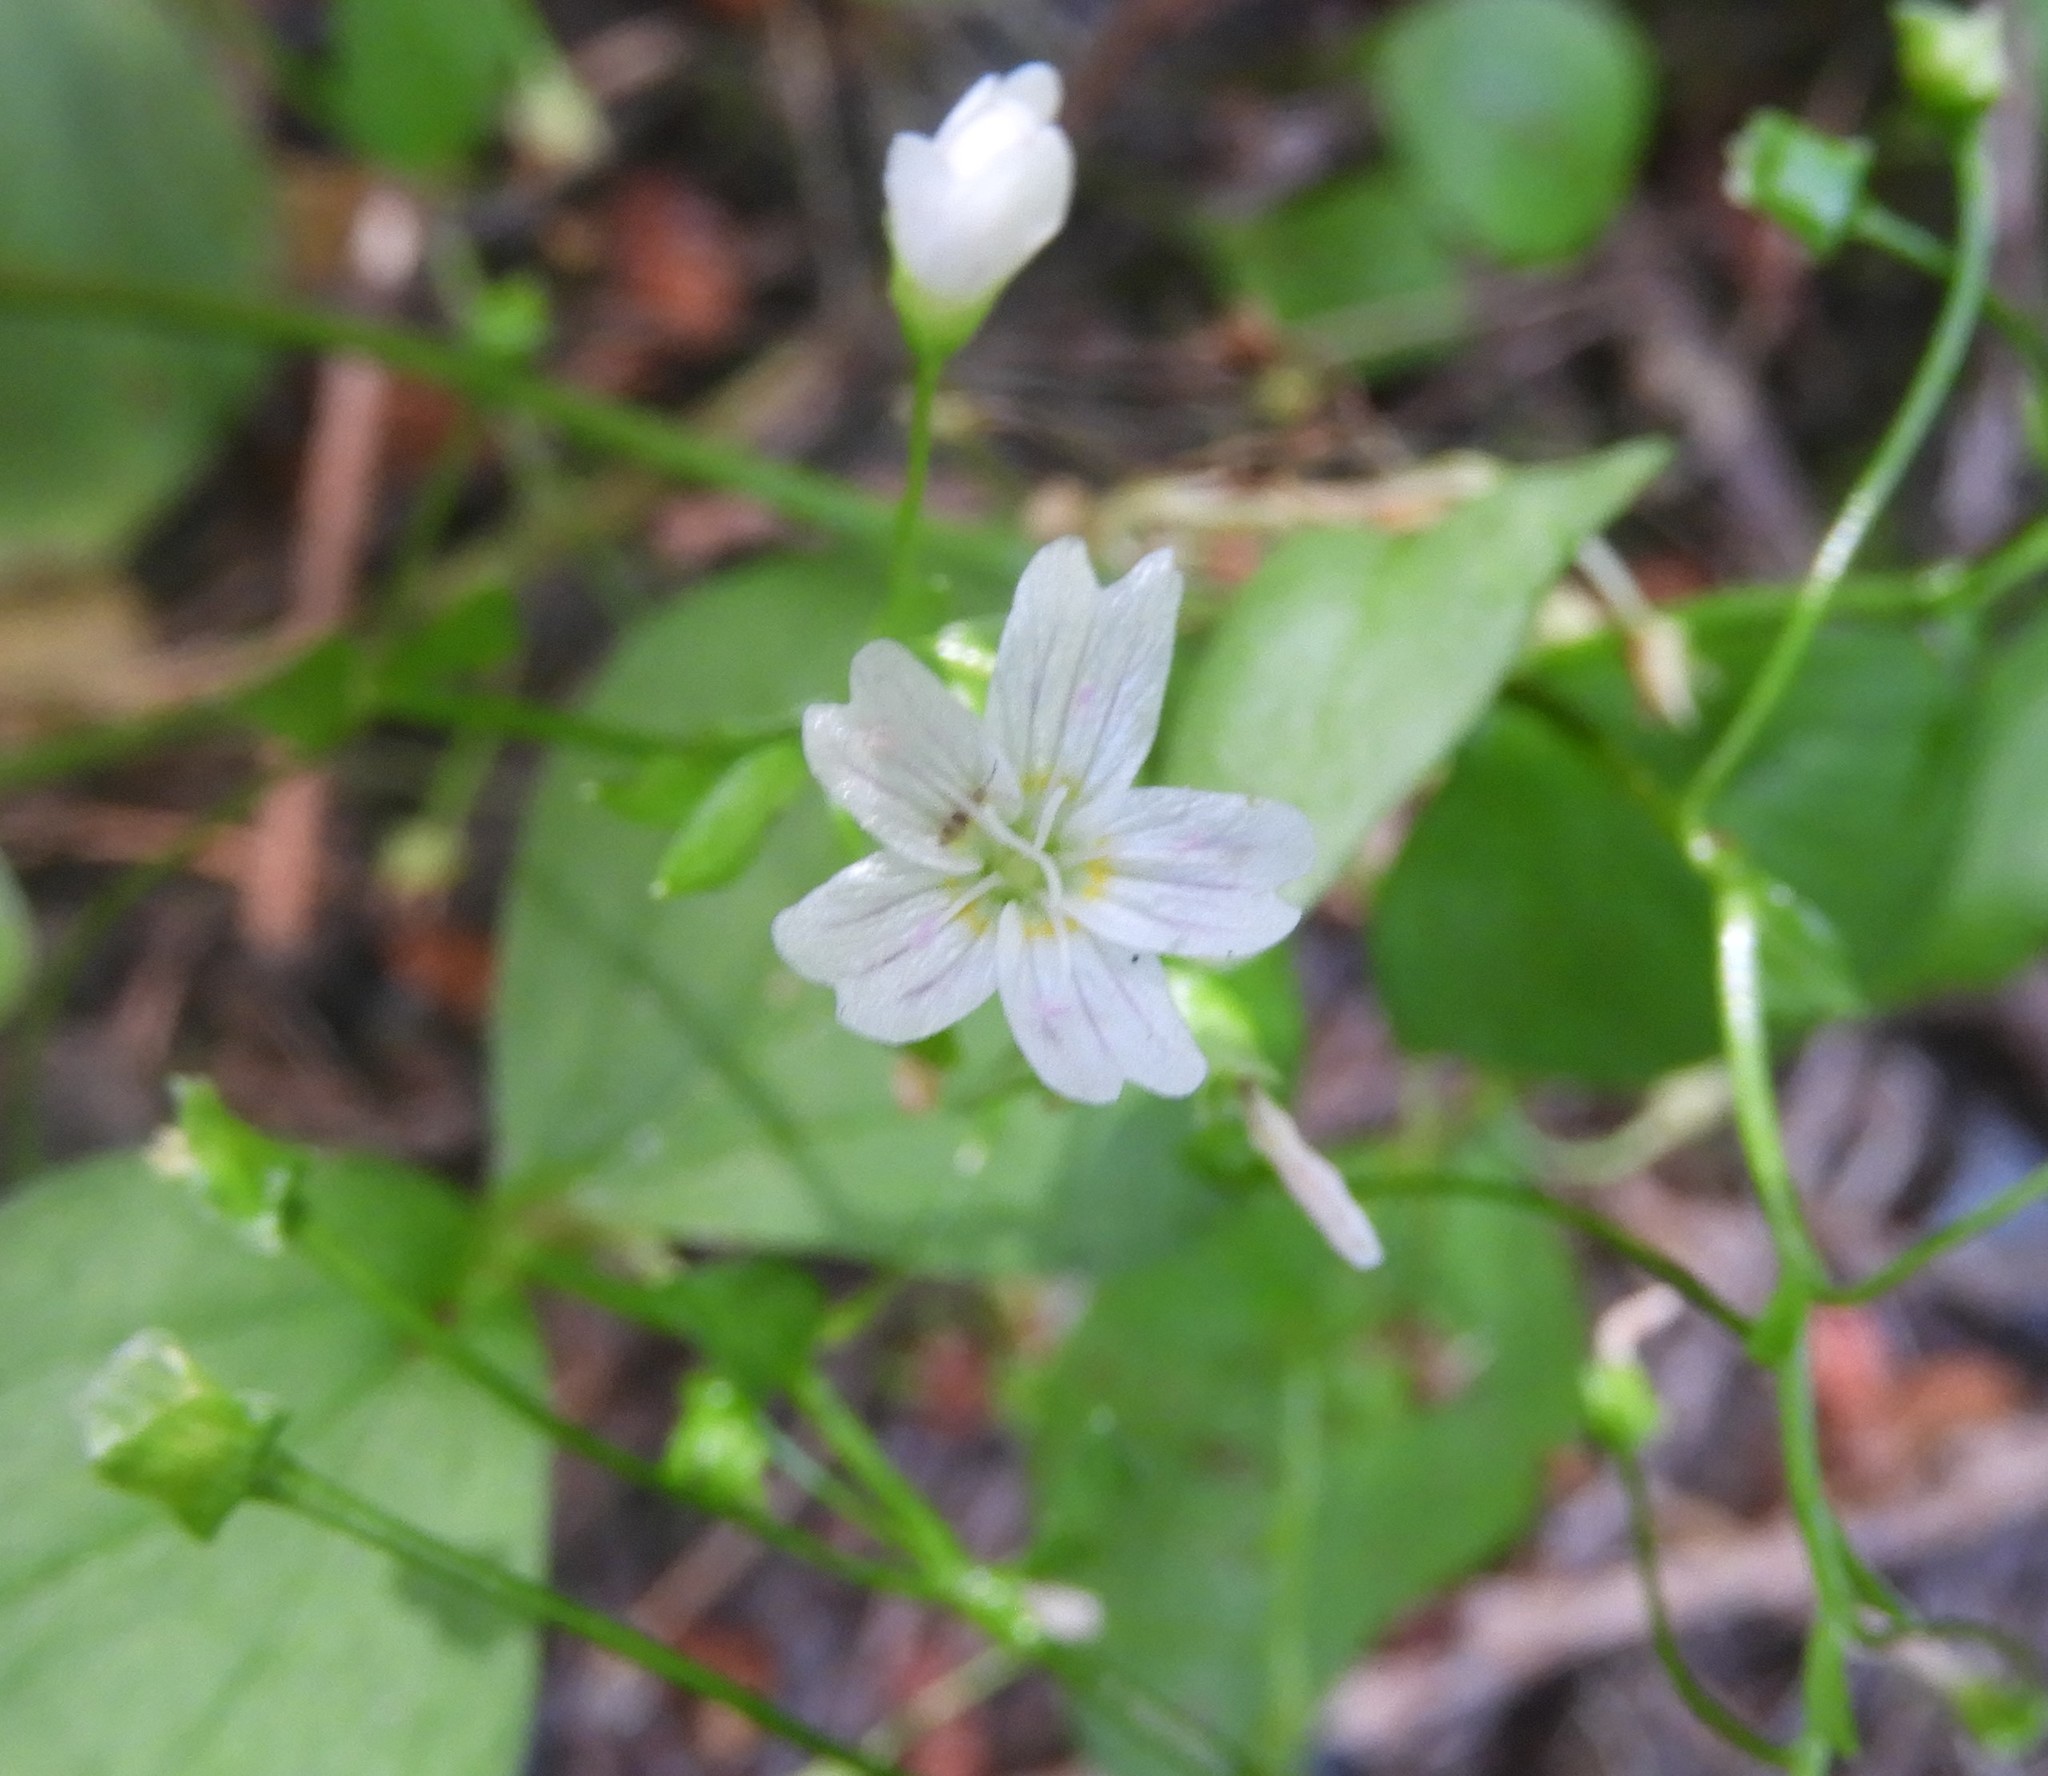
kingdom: Plantae
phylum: Tracheophyta
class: Magnoliopsida
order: Caryophyllales
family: Montiaceae
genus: Claytonia
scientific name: Claytonia sibirica
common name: Pink purslane
